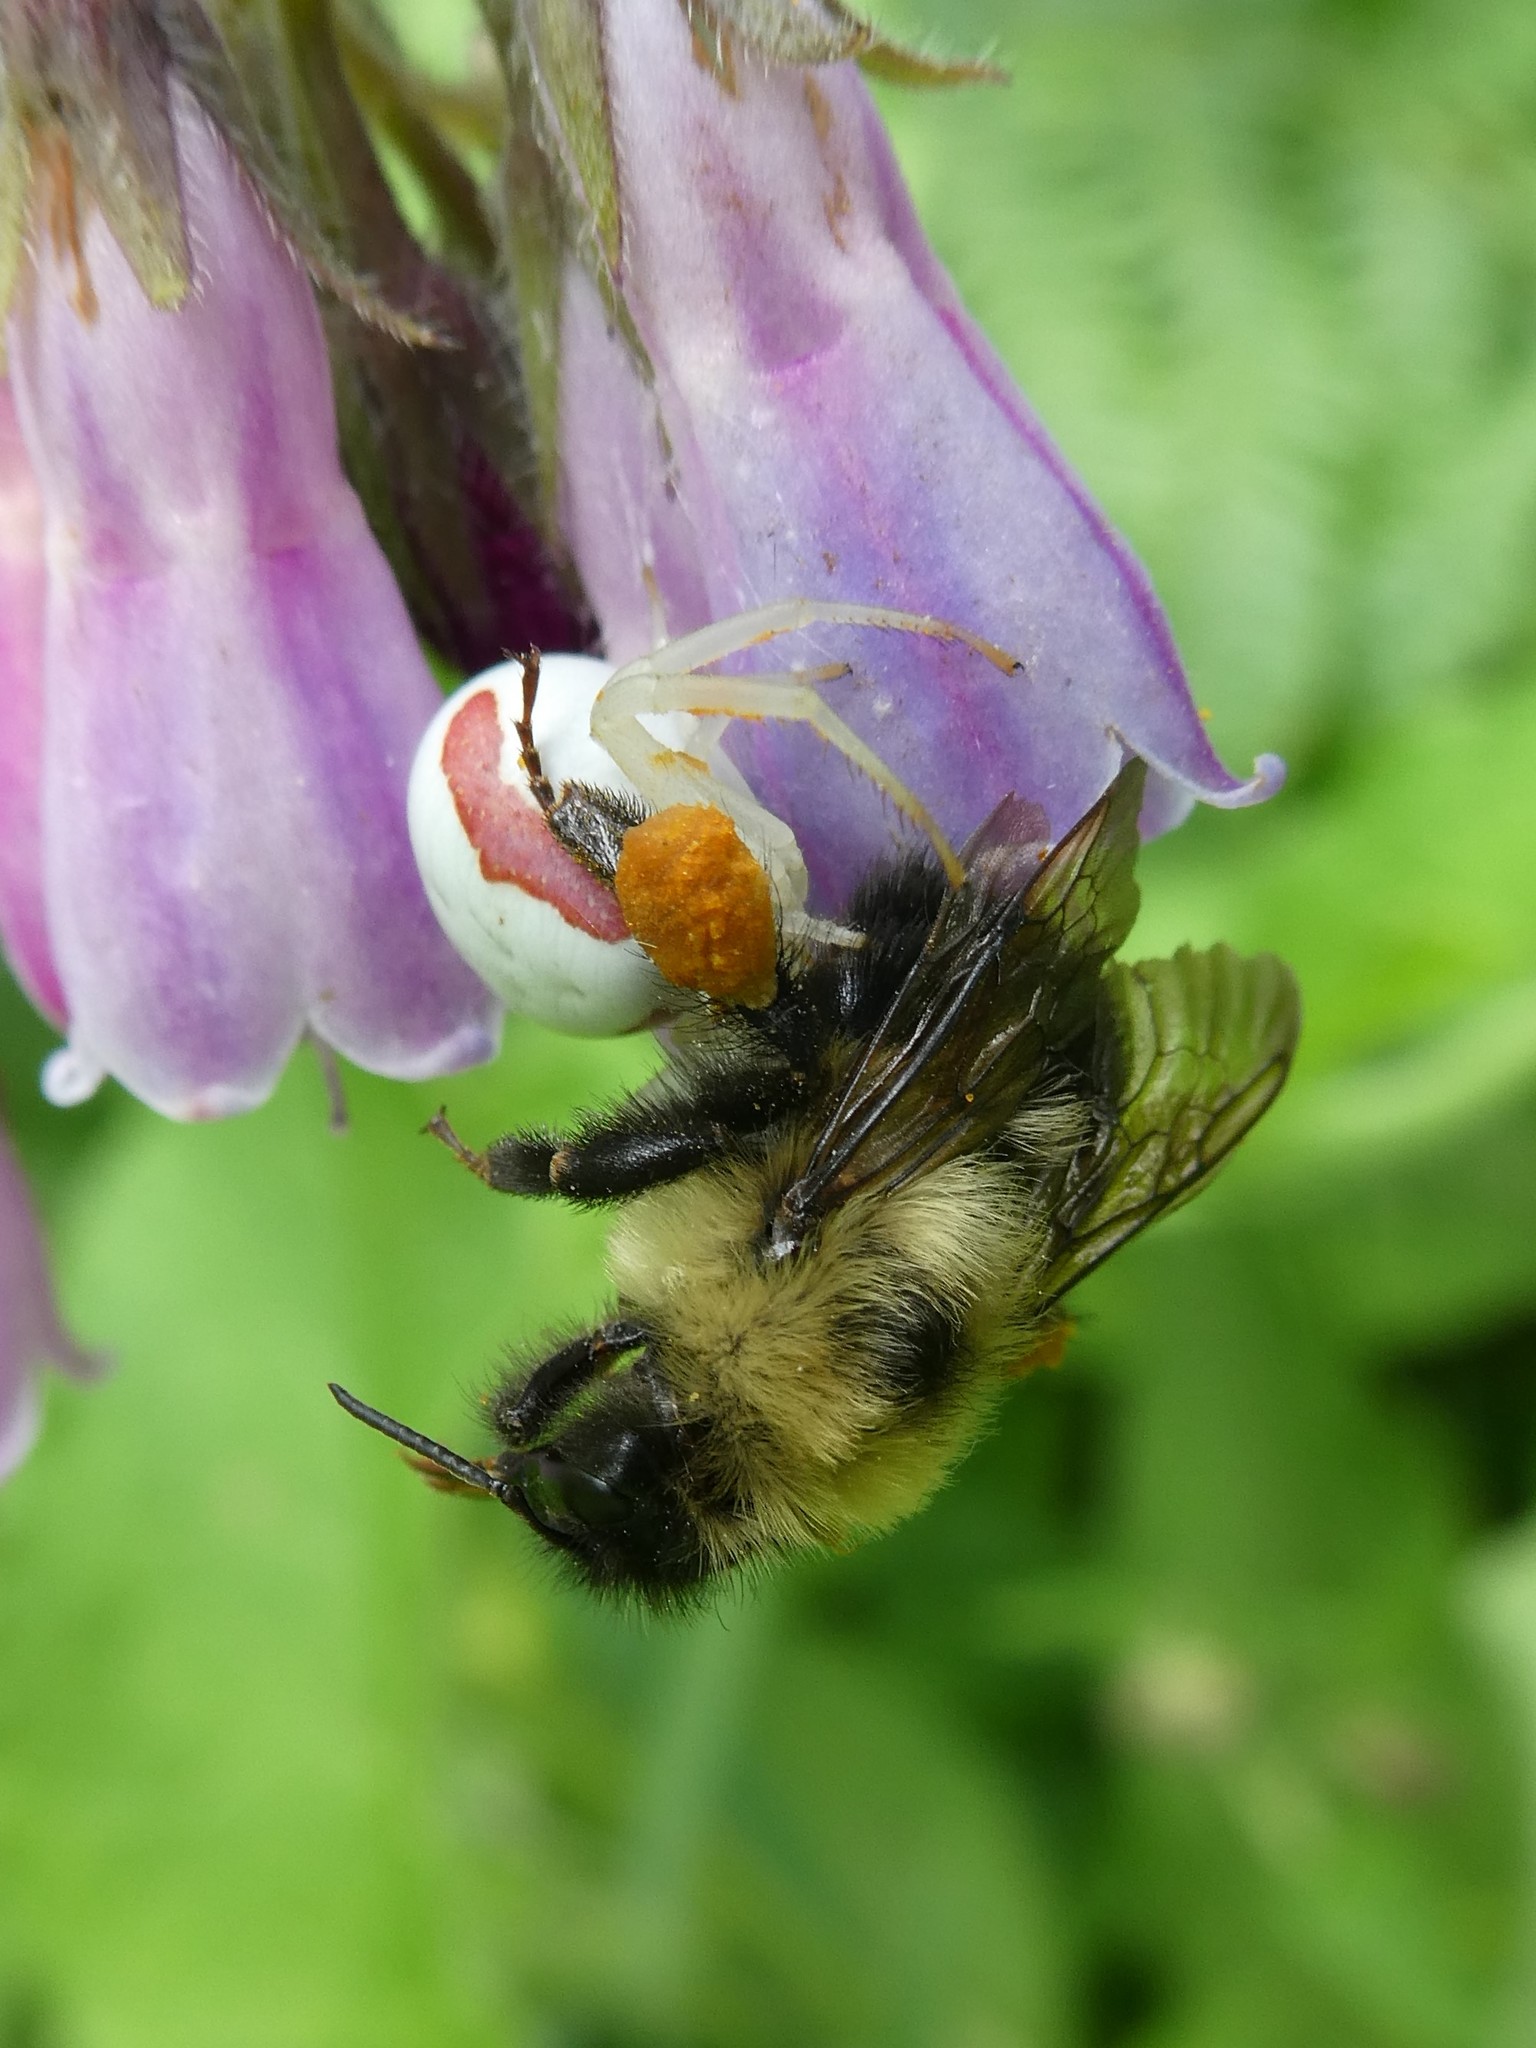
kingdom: Animalia
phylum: Arthropoda
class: Arachnida
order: Araneae
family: Thomisidae
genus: Misumena
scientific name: Misumena vatia
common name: Goldenrod crab spider
